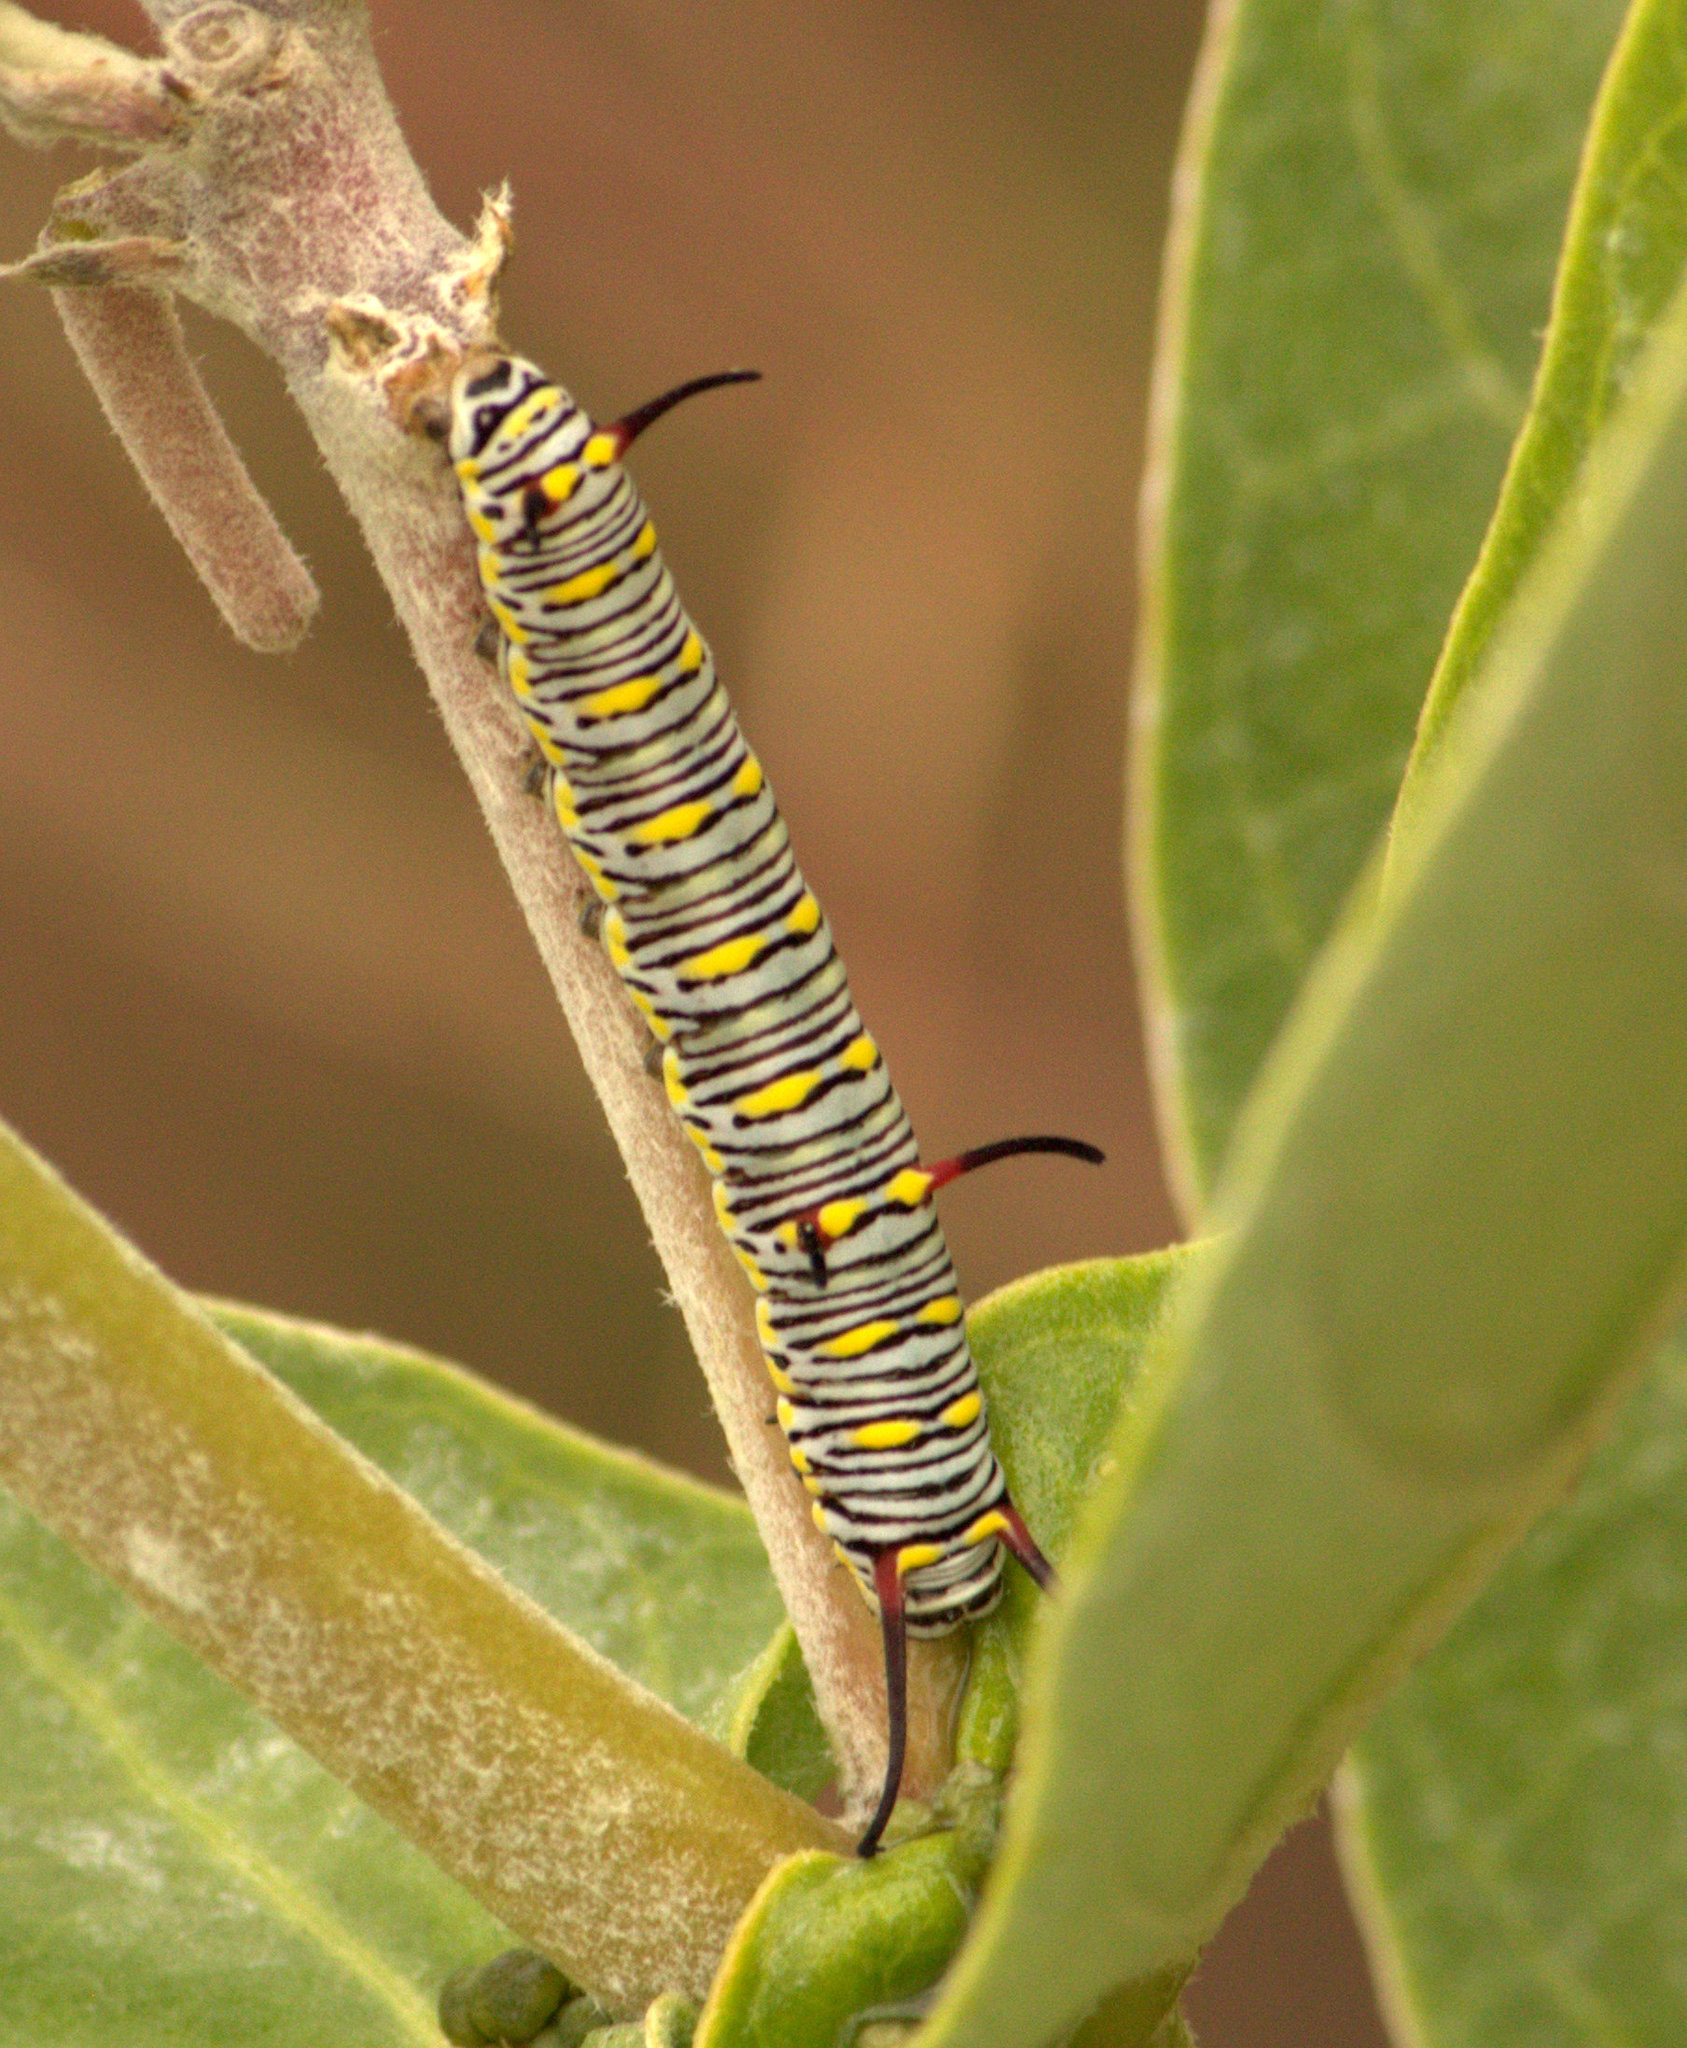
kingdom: Animalia
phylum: Arthropoda
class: Insecta
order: Lepidoptera
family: Nymphalidae
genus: Danaus
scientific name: Danaus chrysippus
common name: Plain tiger
